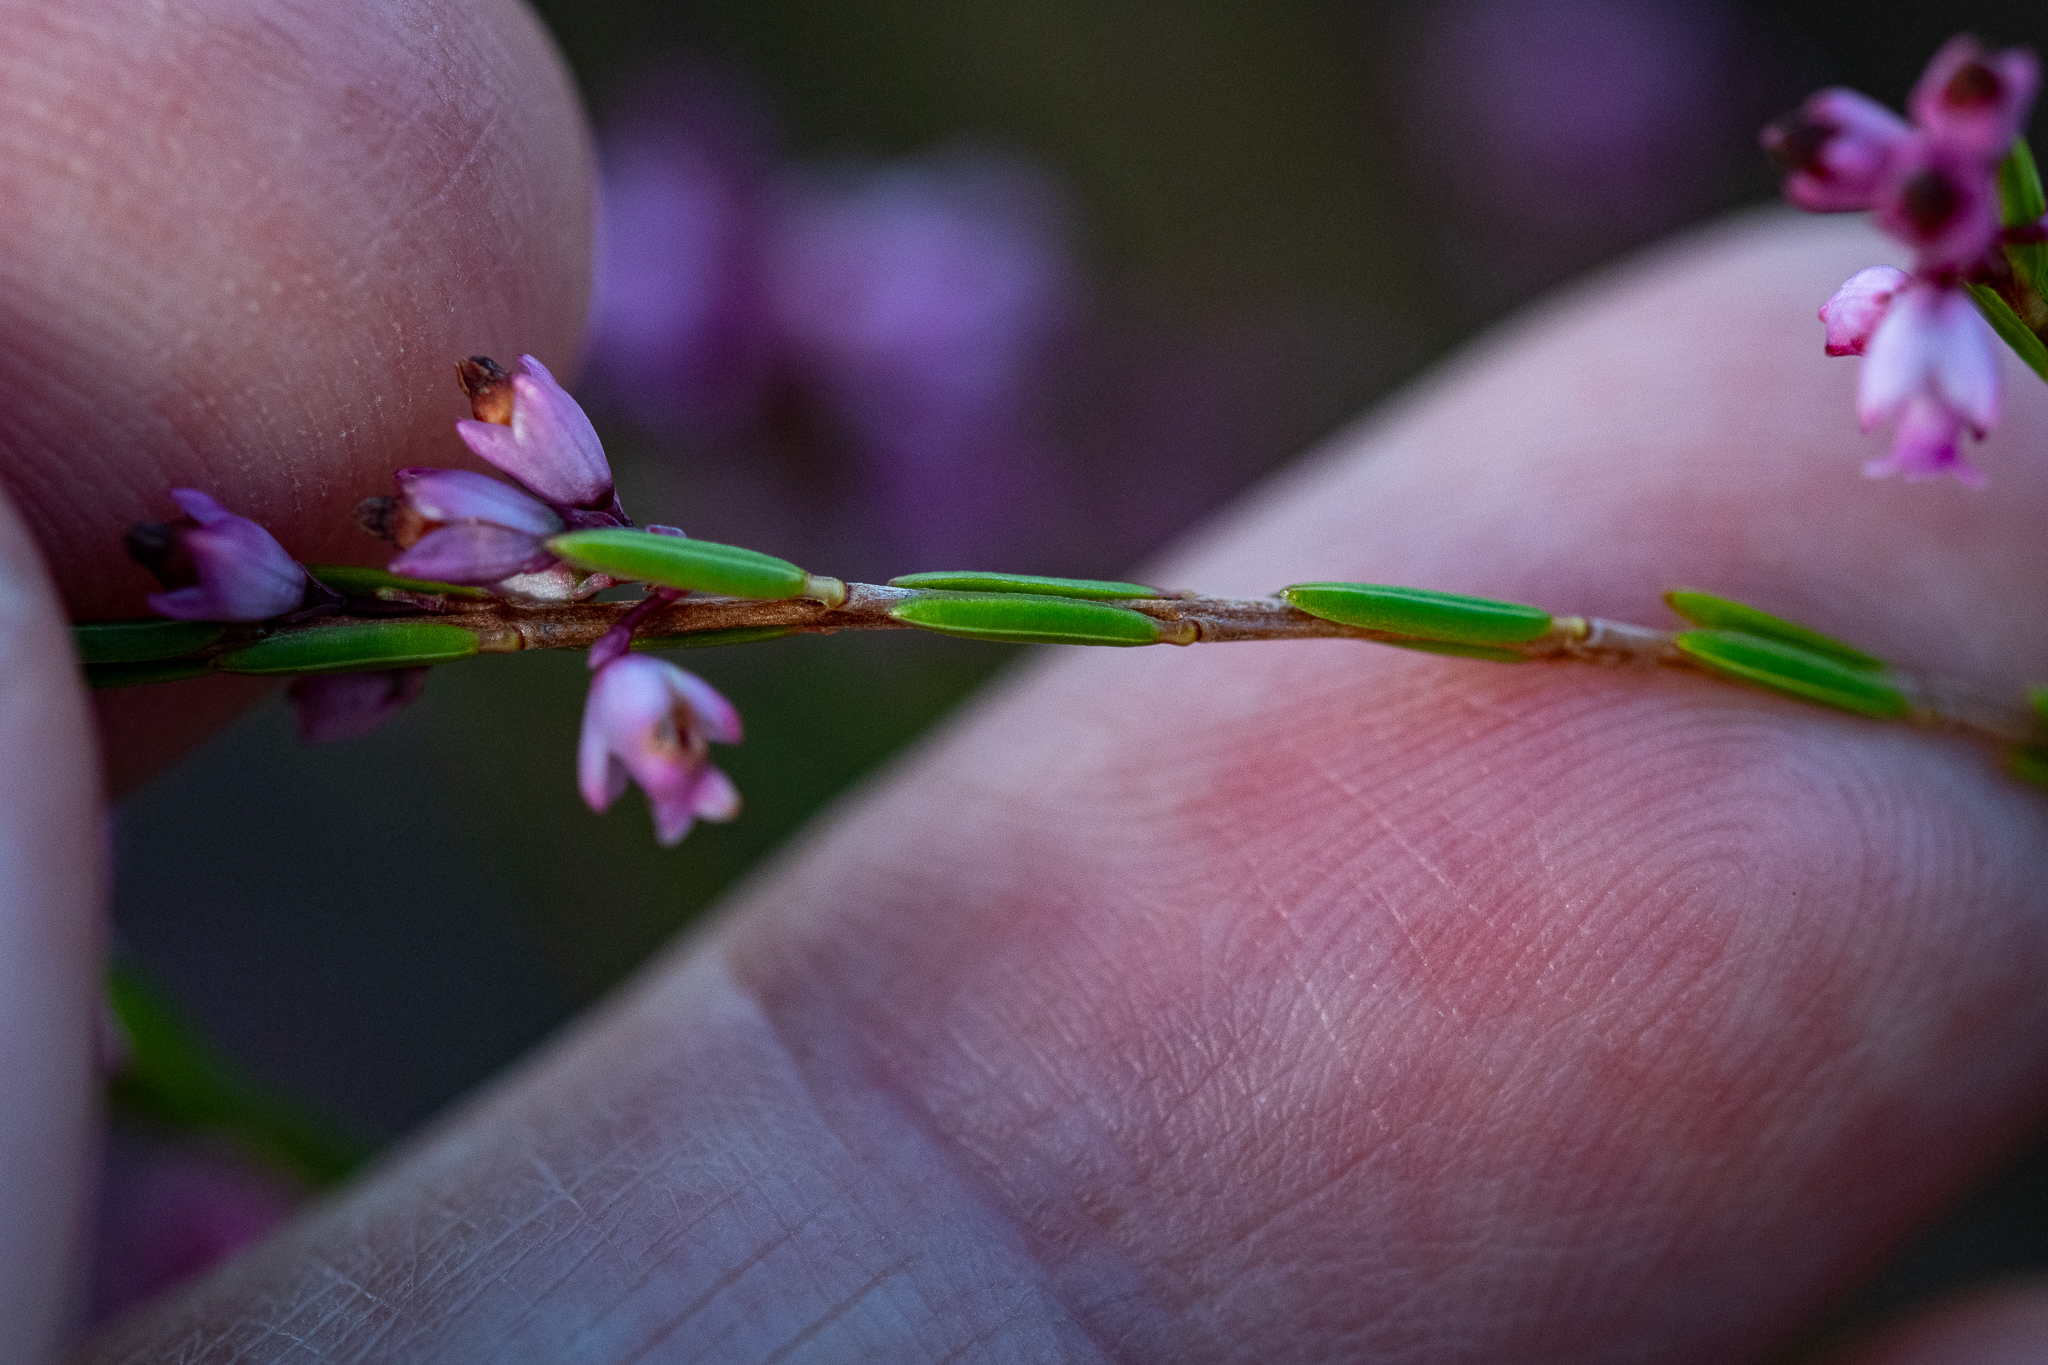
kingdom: Plantae
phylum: Tracheophyta
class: Magnoliopsida
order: Ericales
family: Ericaceae
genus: Erica
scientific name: Erica tenuifolia
